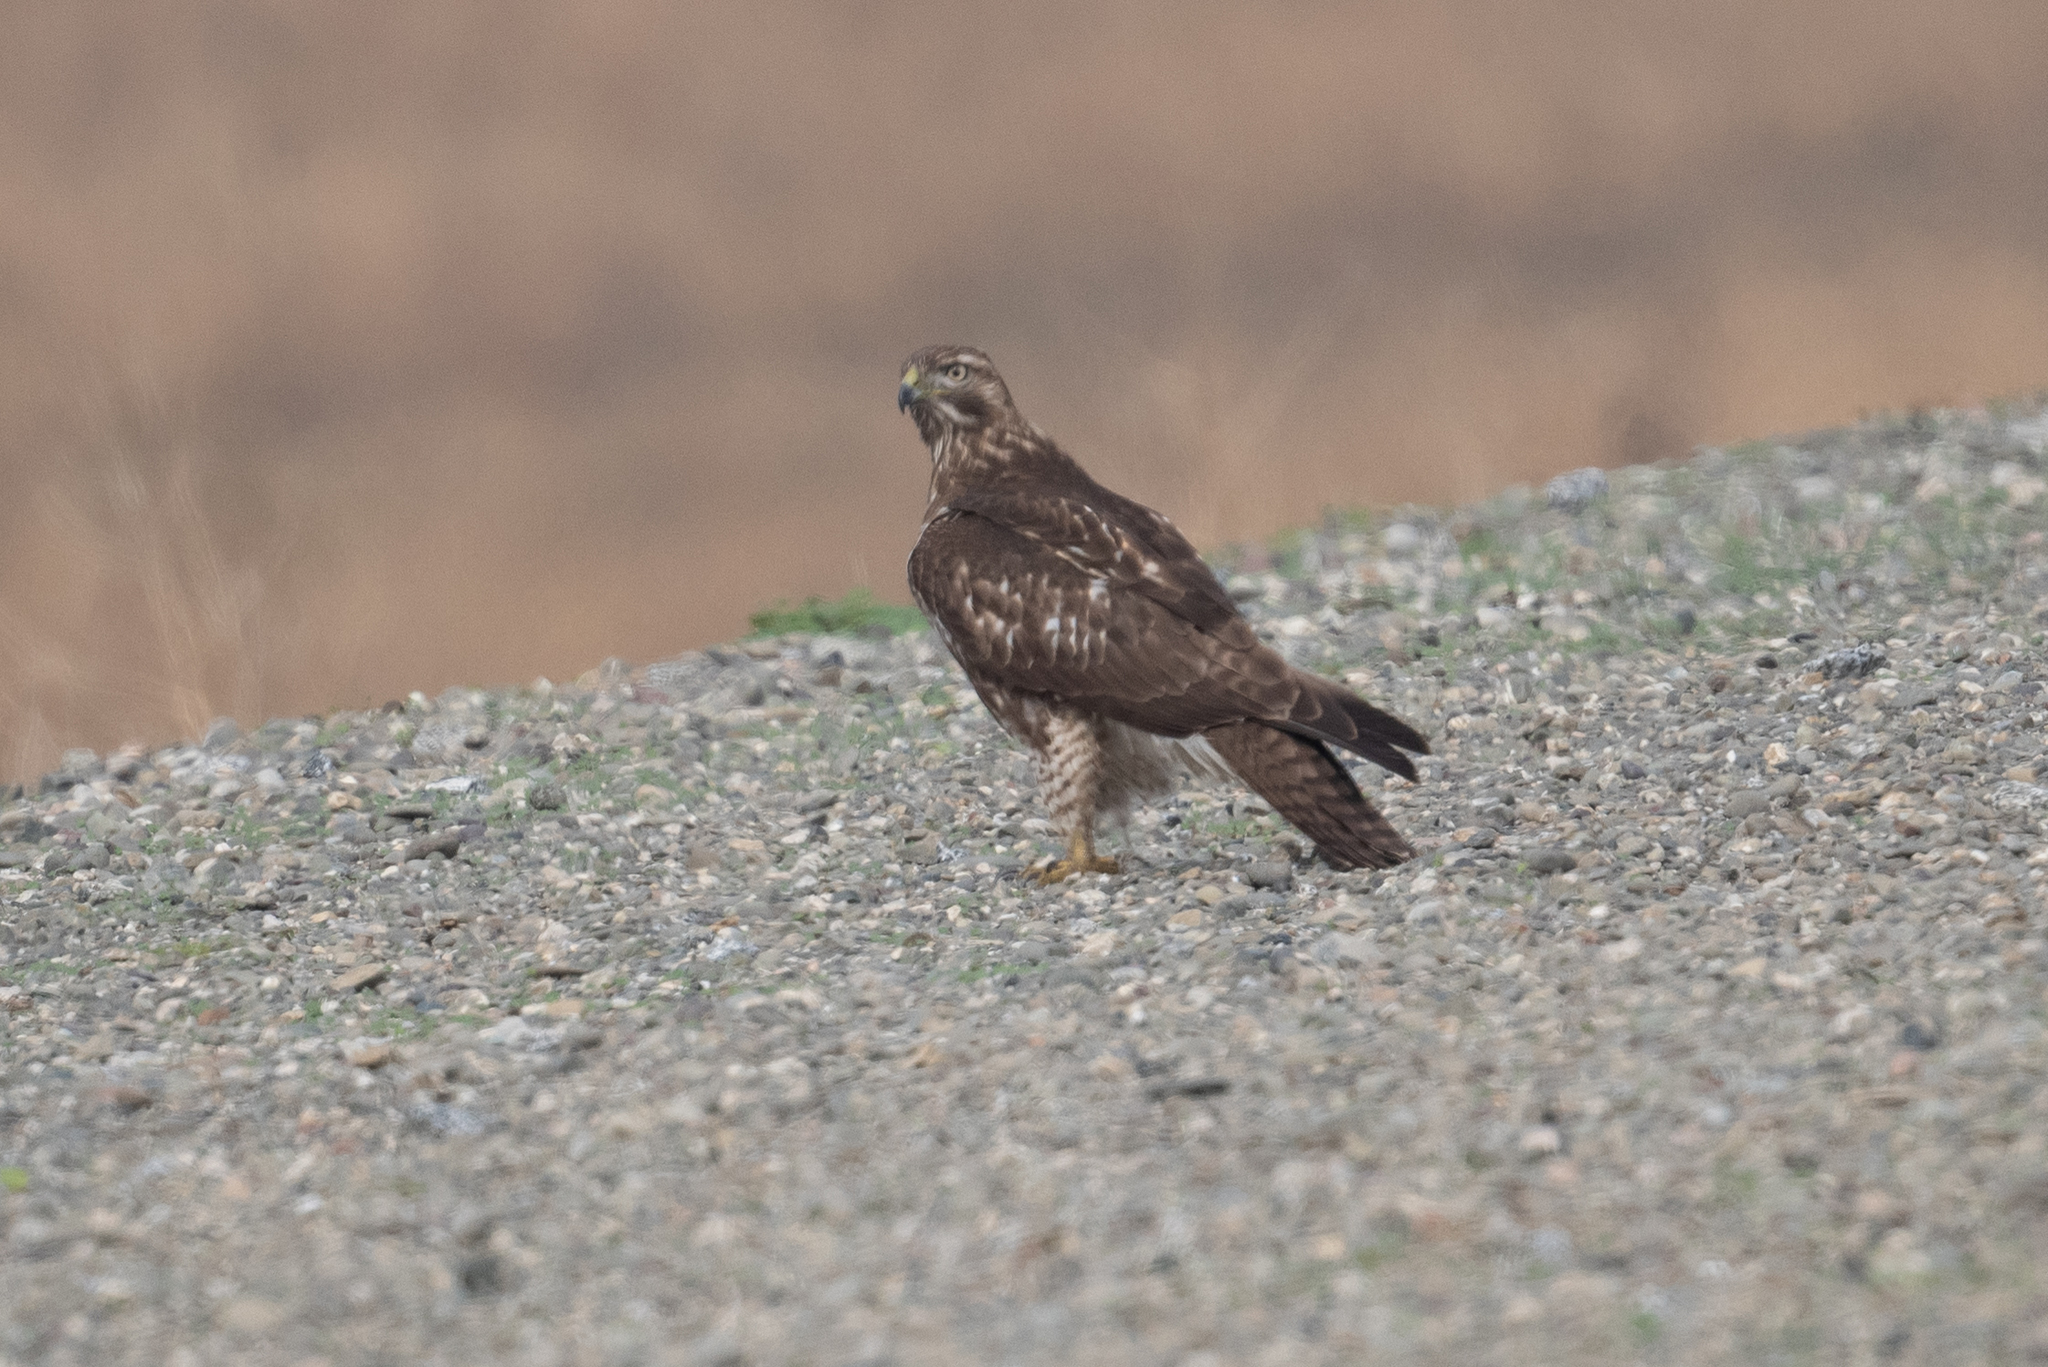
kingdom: Animalia
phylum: Chordata
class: Aves
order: Accipitriformes
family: Accipitridae
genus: Buteo
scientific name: Buteo jamaicensis
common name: Red-tailed hawk
